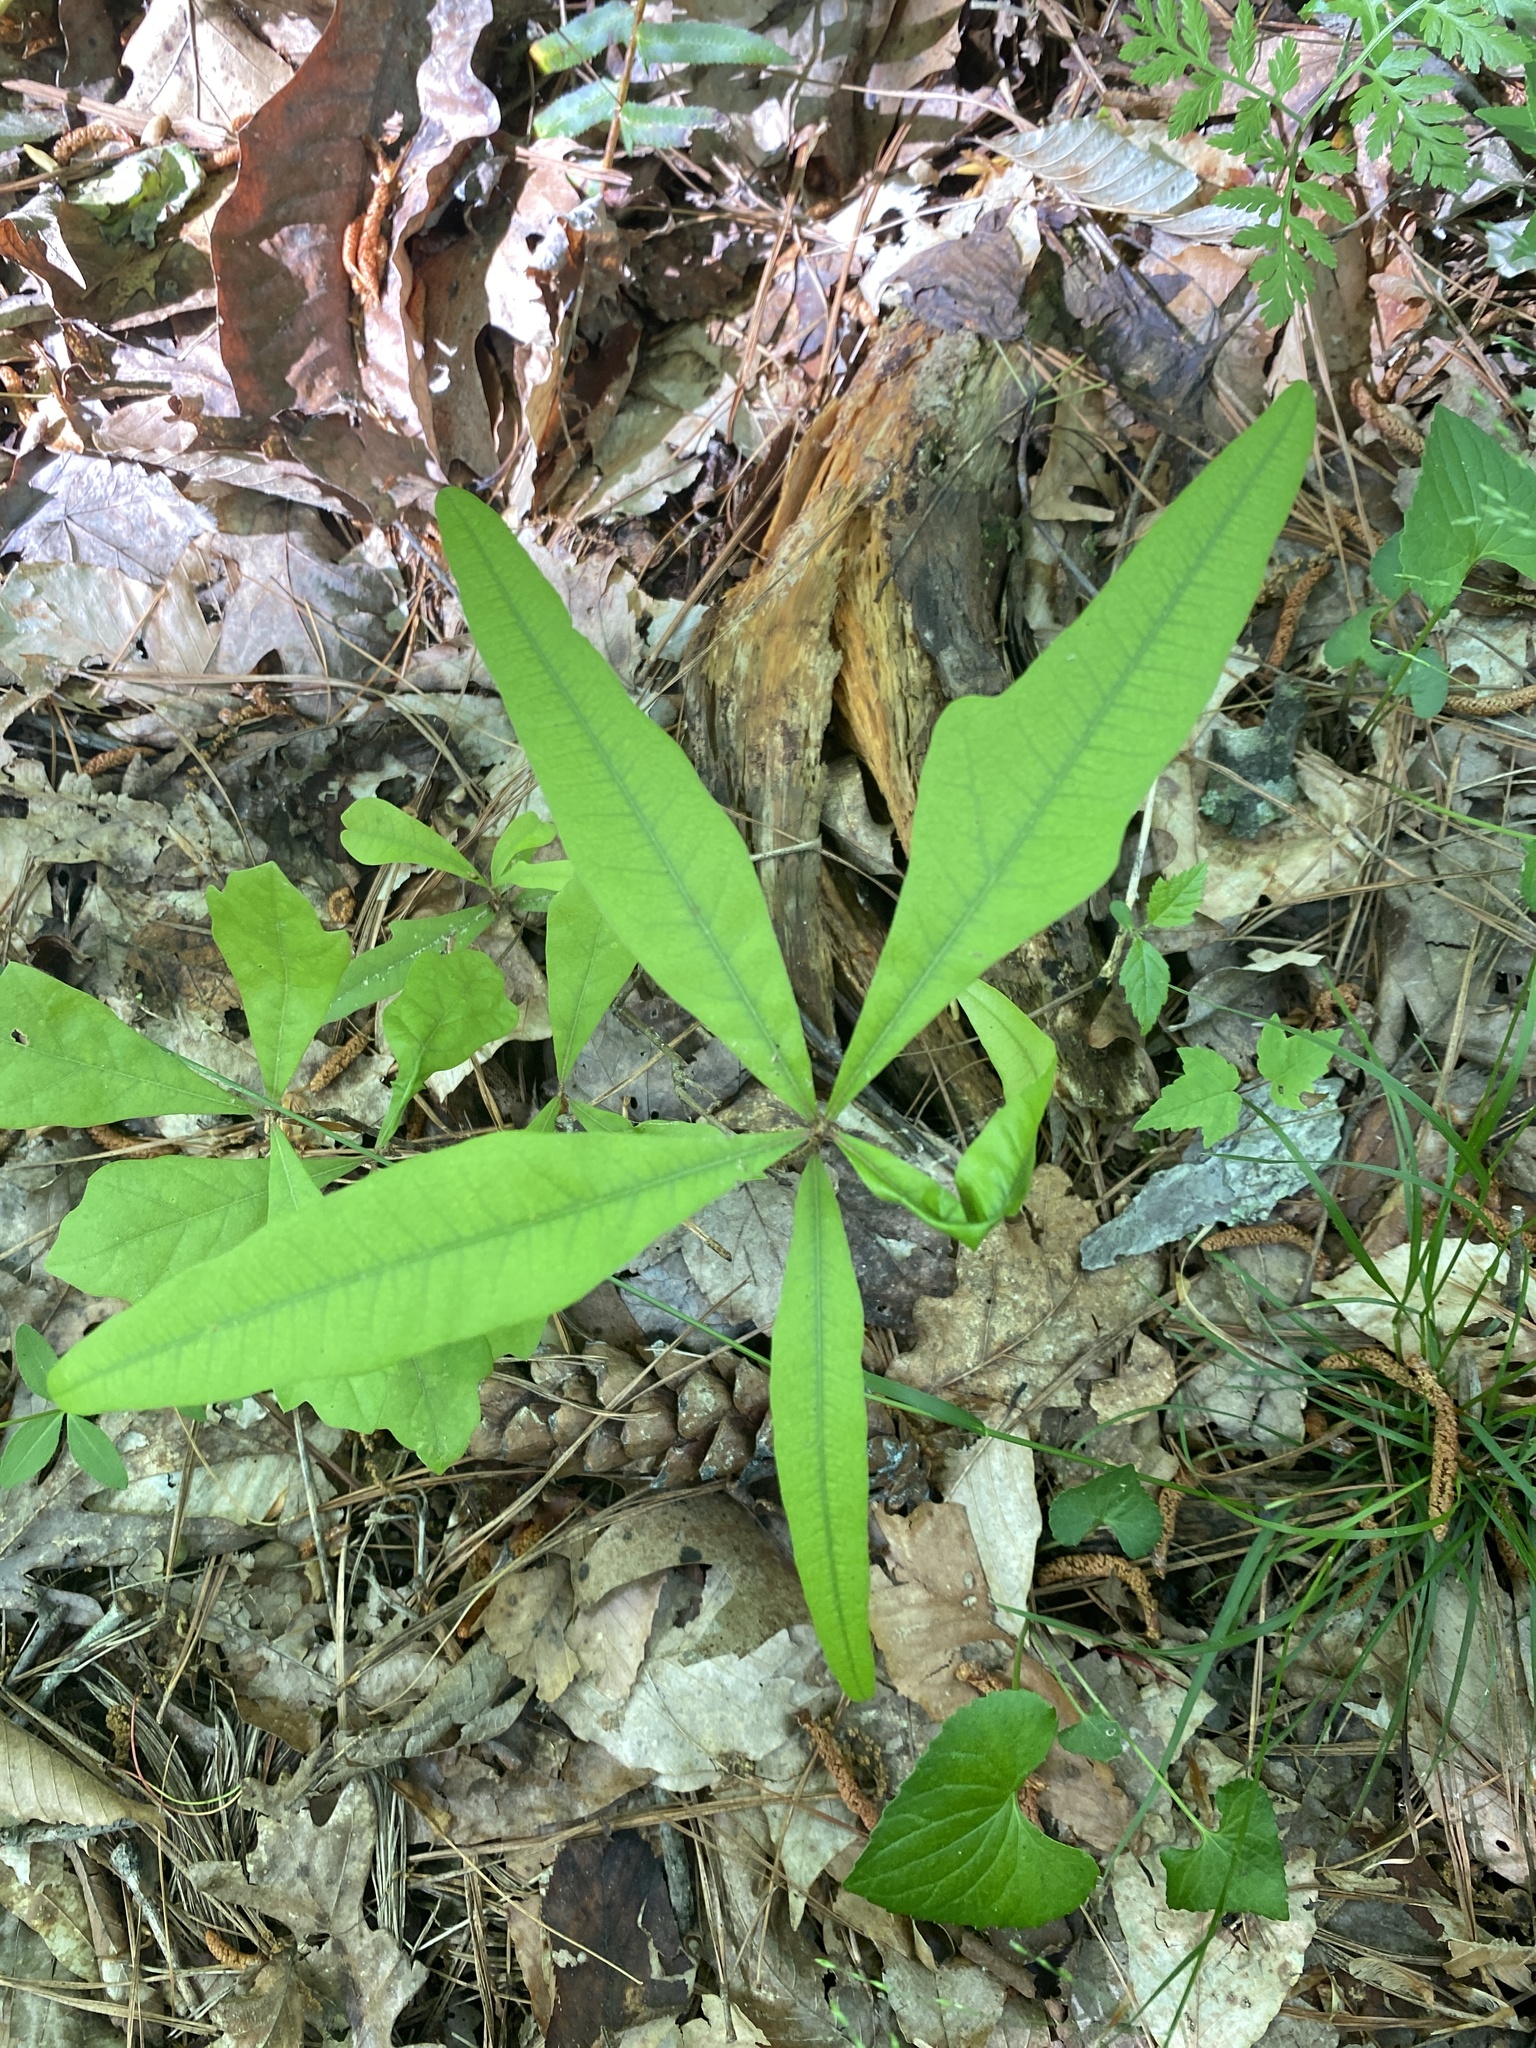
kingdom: Plantae
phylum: Tracheophyta
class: Magnoliopsida
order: Fagales
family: Fagaceae
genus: Quercus
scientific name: Quercus nigra
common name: Water oak
